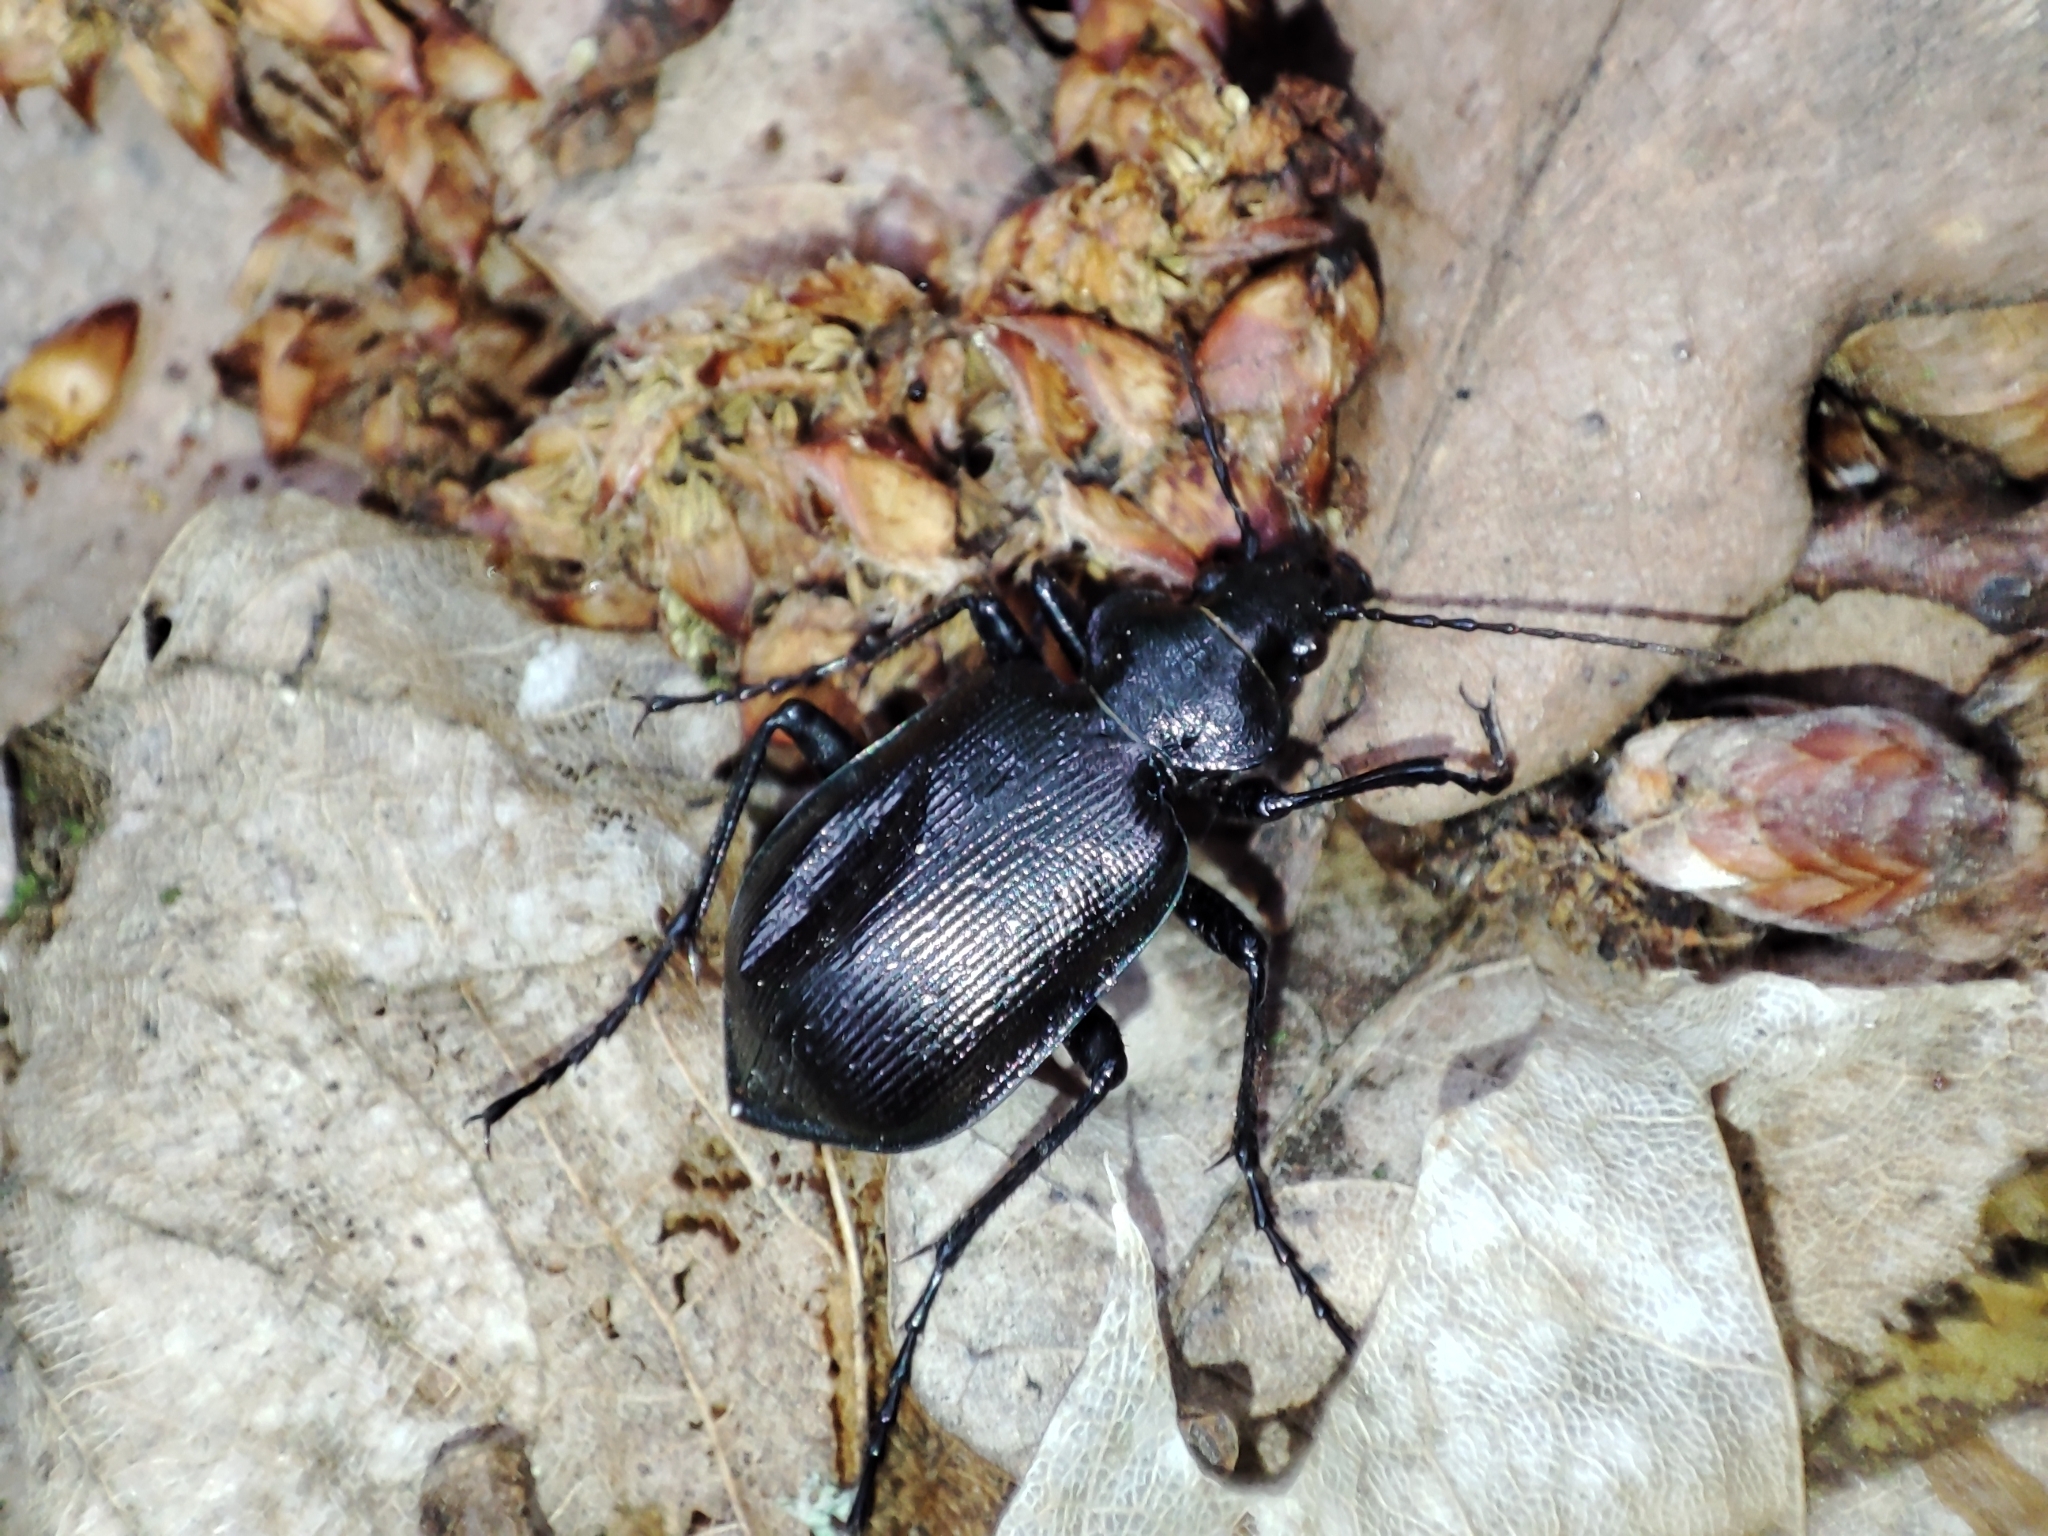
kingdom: Animalia
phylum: Arthropoda
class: Insecta
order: Coleoptera
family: Carabidae
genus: Calosoma
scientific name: Calosoma inquisitor
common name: Caterpillar-hunter
